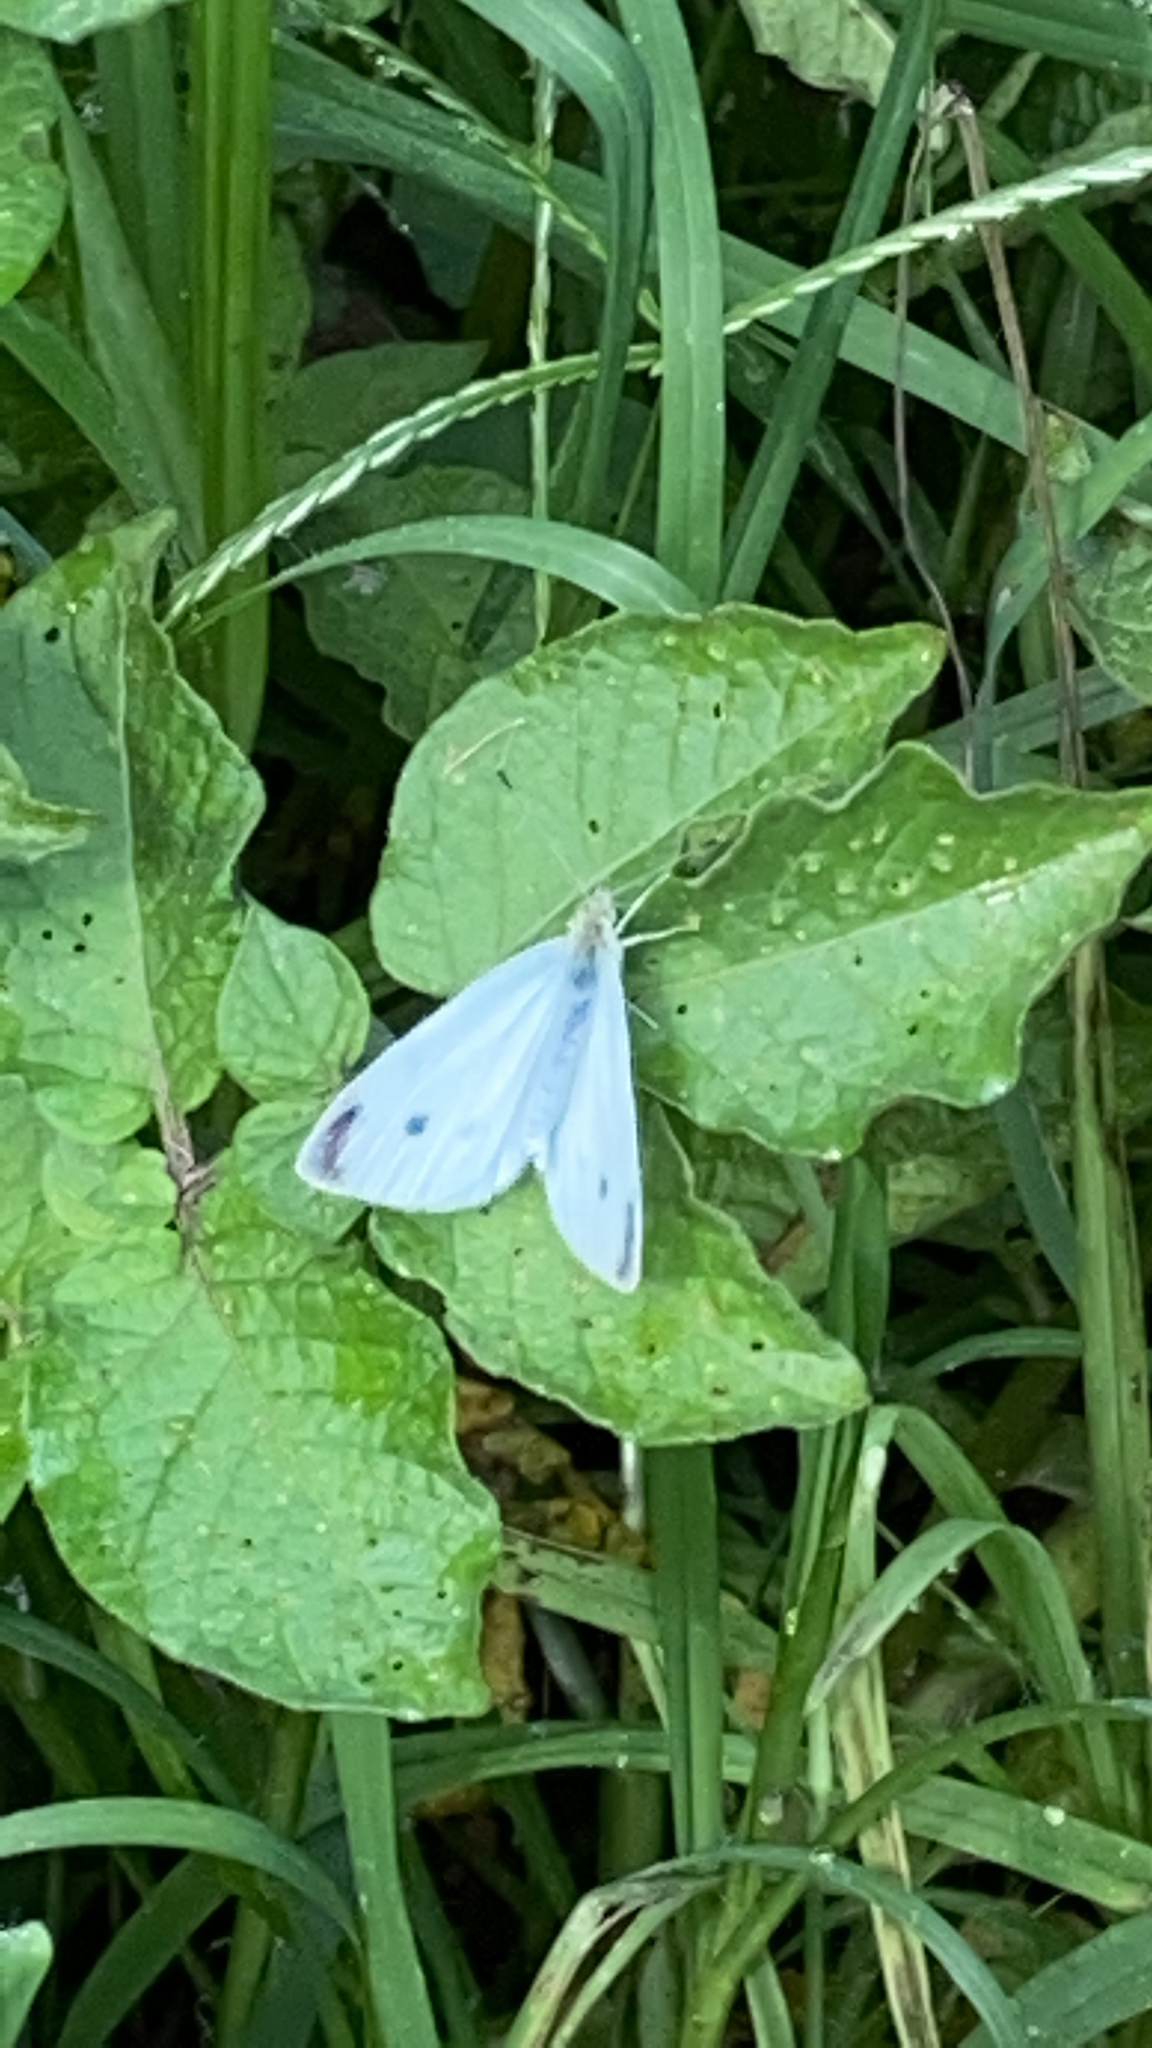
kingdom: Animalia
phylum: Arthropoda
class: Insecta
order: Lepidoptera
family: Pieridae
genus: Pieris
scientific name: Pieris rapae
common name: Small white
